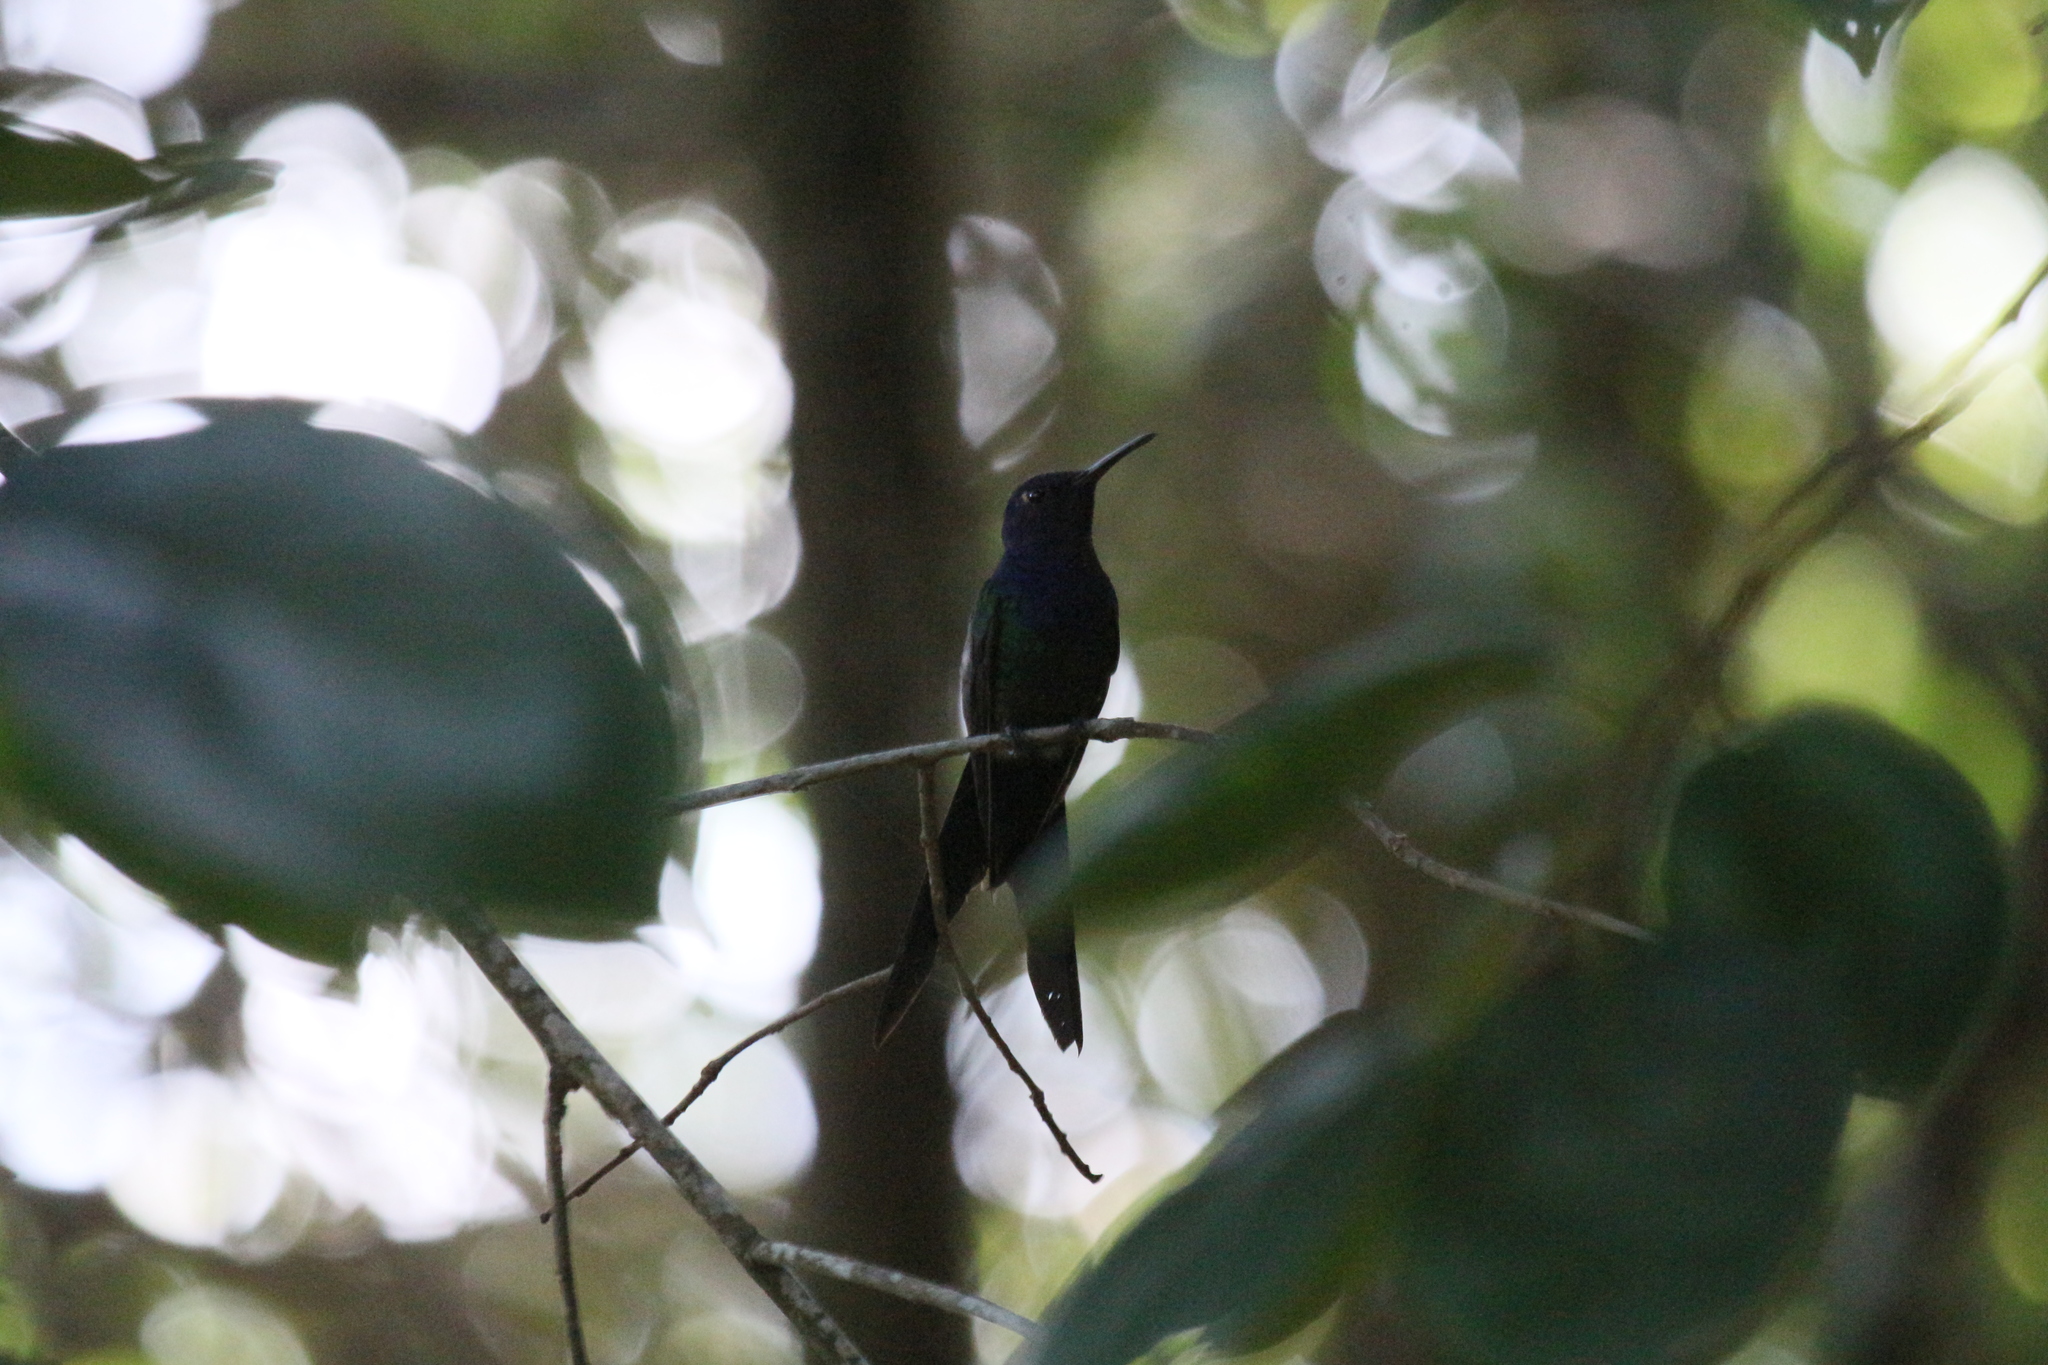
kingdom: Animalia
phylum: Chordata
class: Aves
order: Apodiformes
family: Trochilidae
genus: Eupetomena
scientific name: Eupetomena macroura
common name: Swallow-tailed hummingbird
